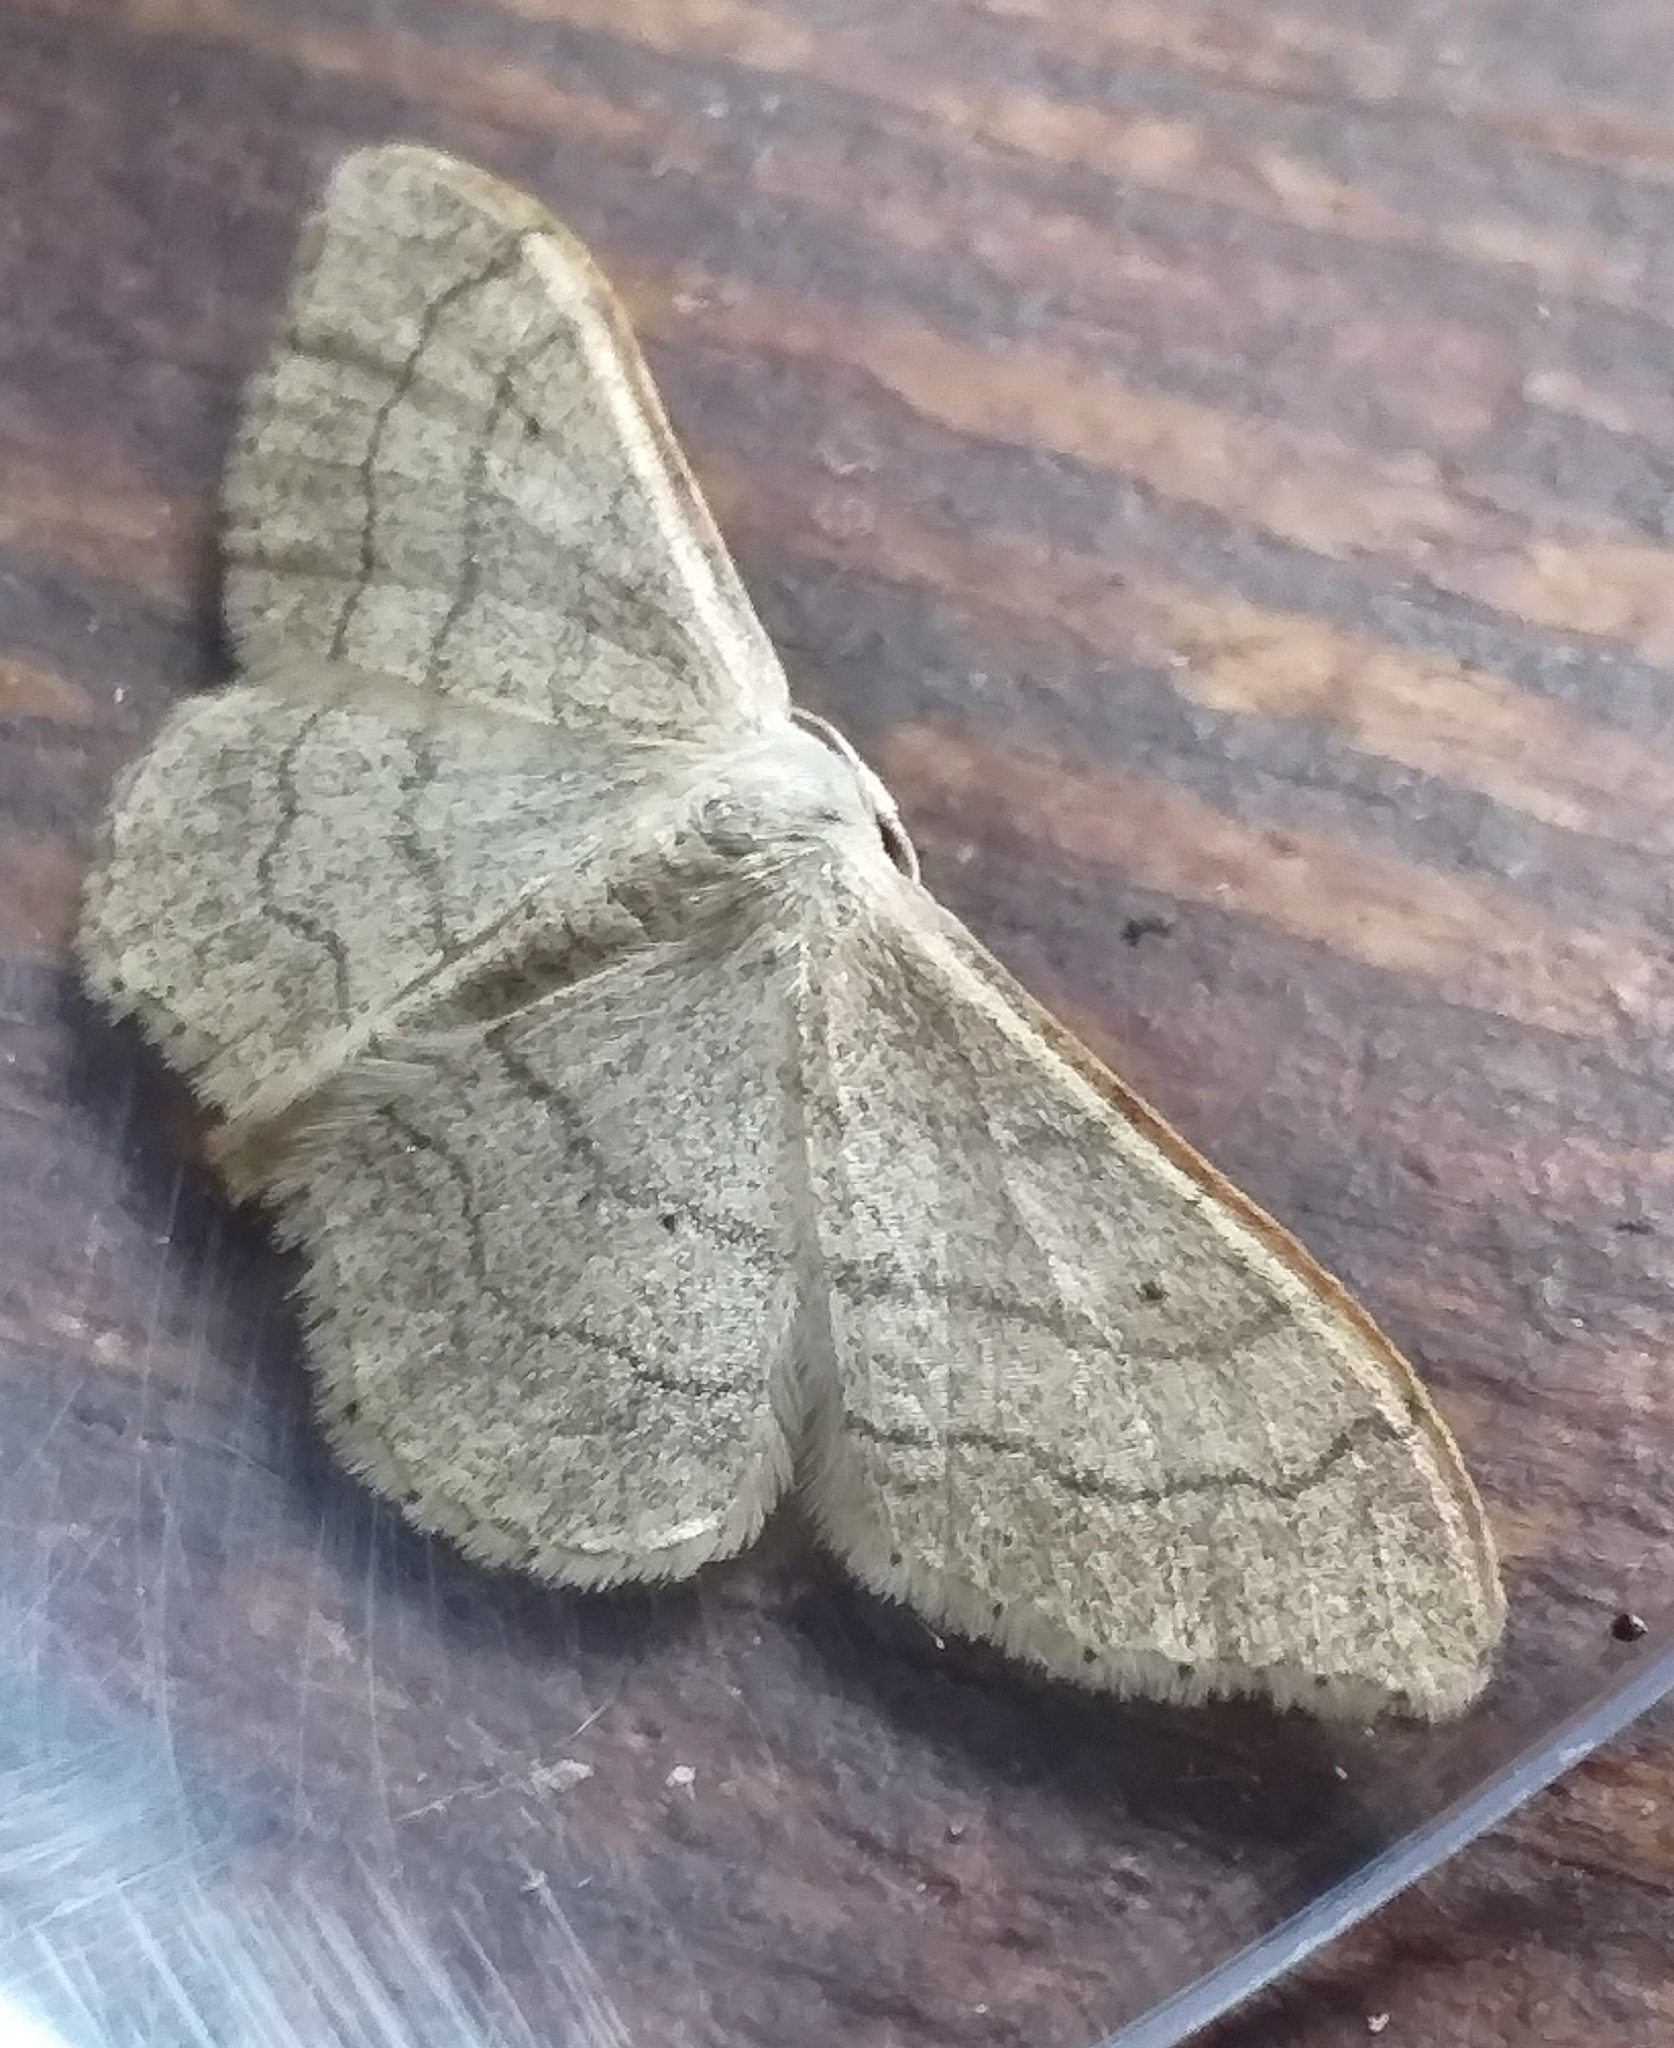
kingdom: Animalia
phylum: Arthropoda
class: Insecta
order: Lepidoptera
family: Geometridae
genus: Idaea
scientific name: Idaea aversata
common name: Riband wave
